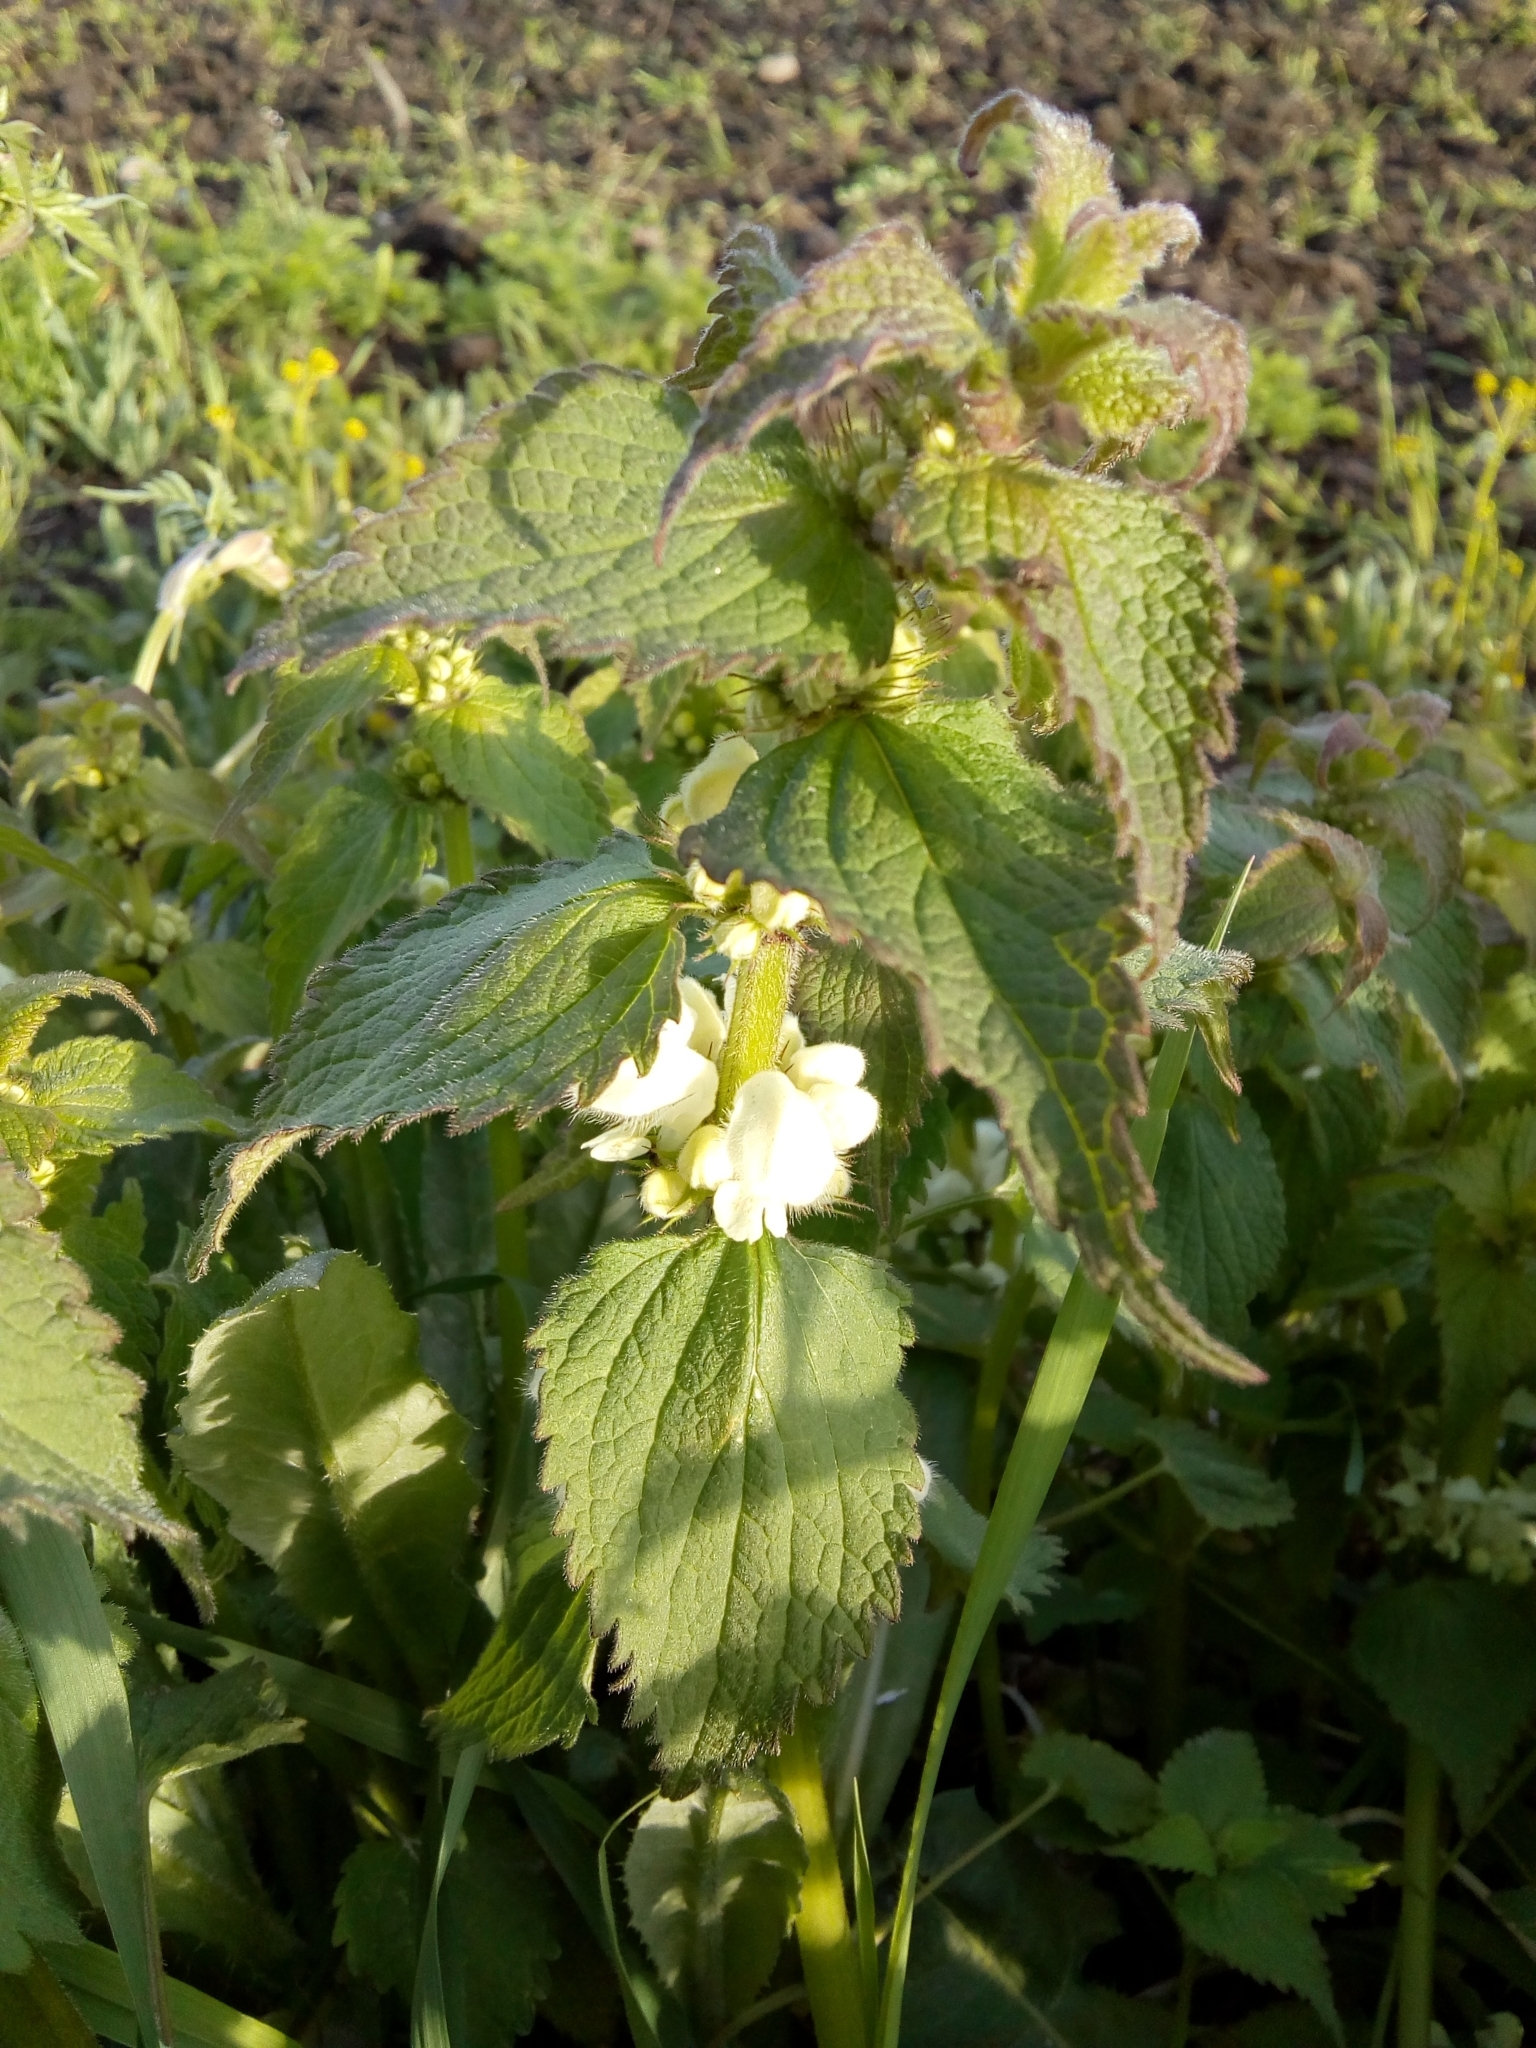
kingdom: Plantae
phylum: Tracheophyta
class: Magnoliopsida
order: Lamiales
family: Lamiaceae
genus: Lamium
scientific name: Lamium album
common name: White dead-nettle
